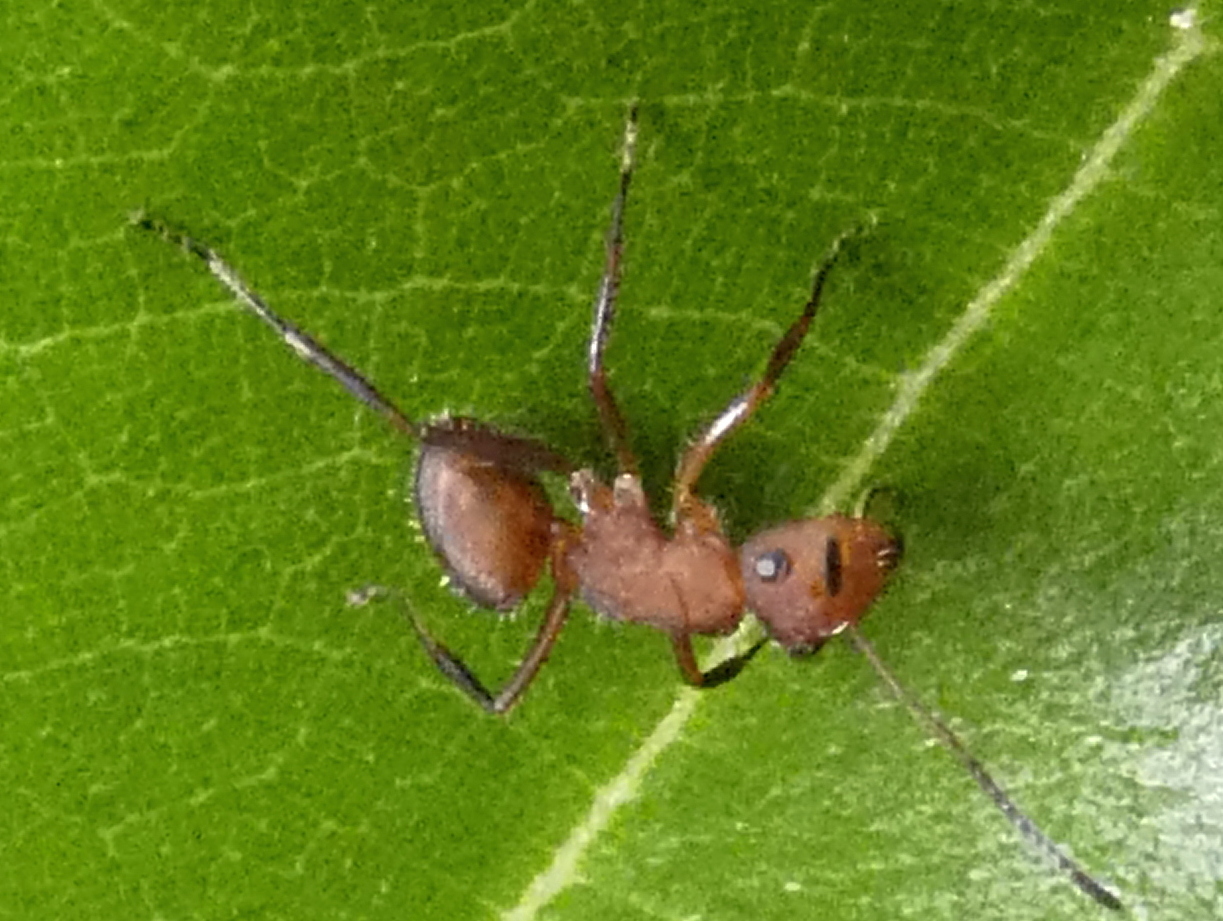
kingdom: Animalia
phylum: Arthropoda
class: Insecta
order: Hymenoptera
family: Formicidae
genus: Camponotus
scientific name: Camponotus rectangularis
